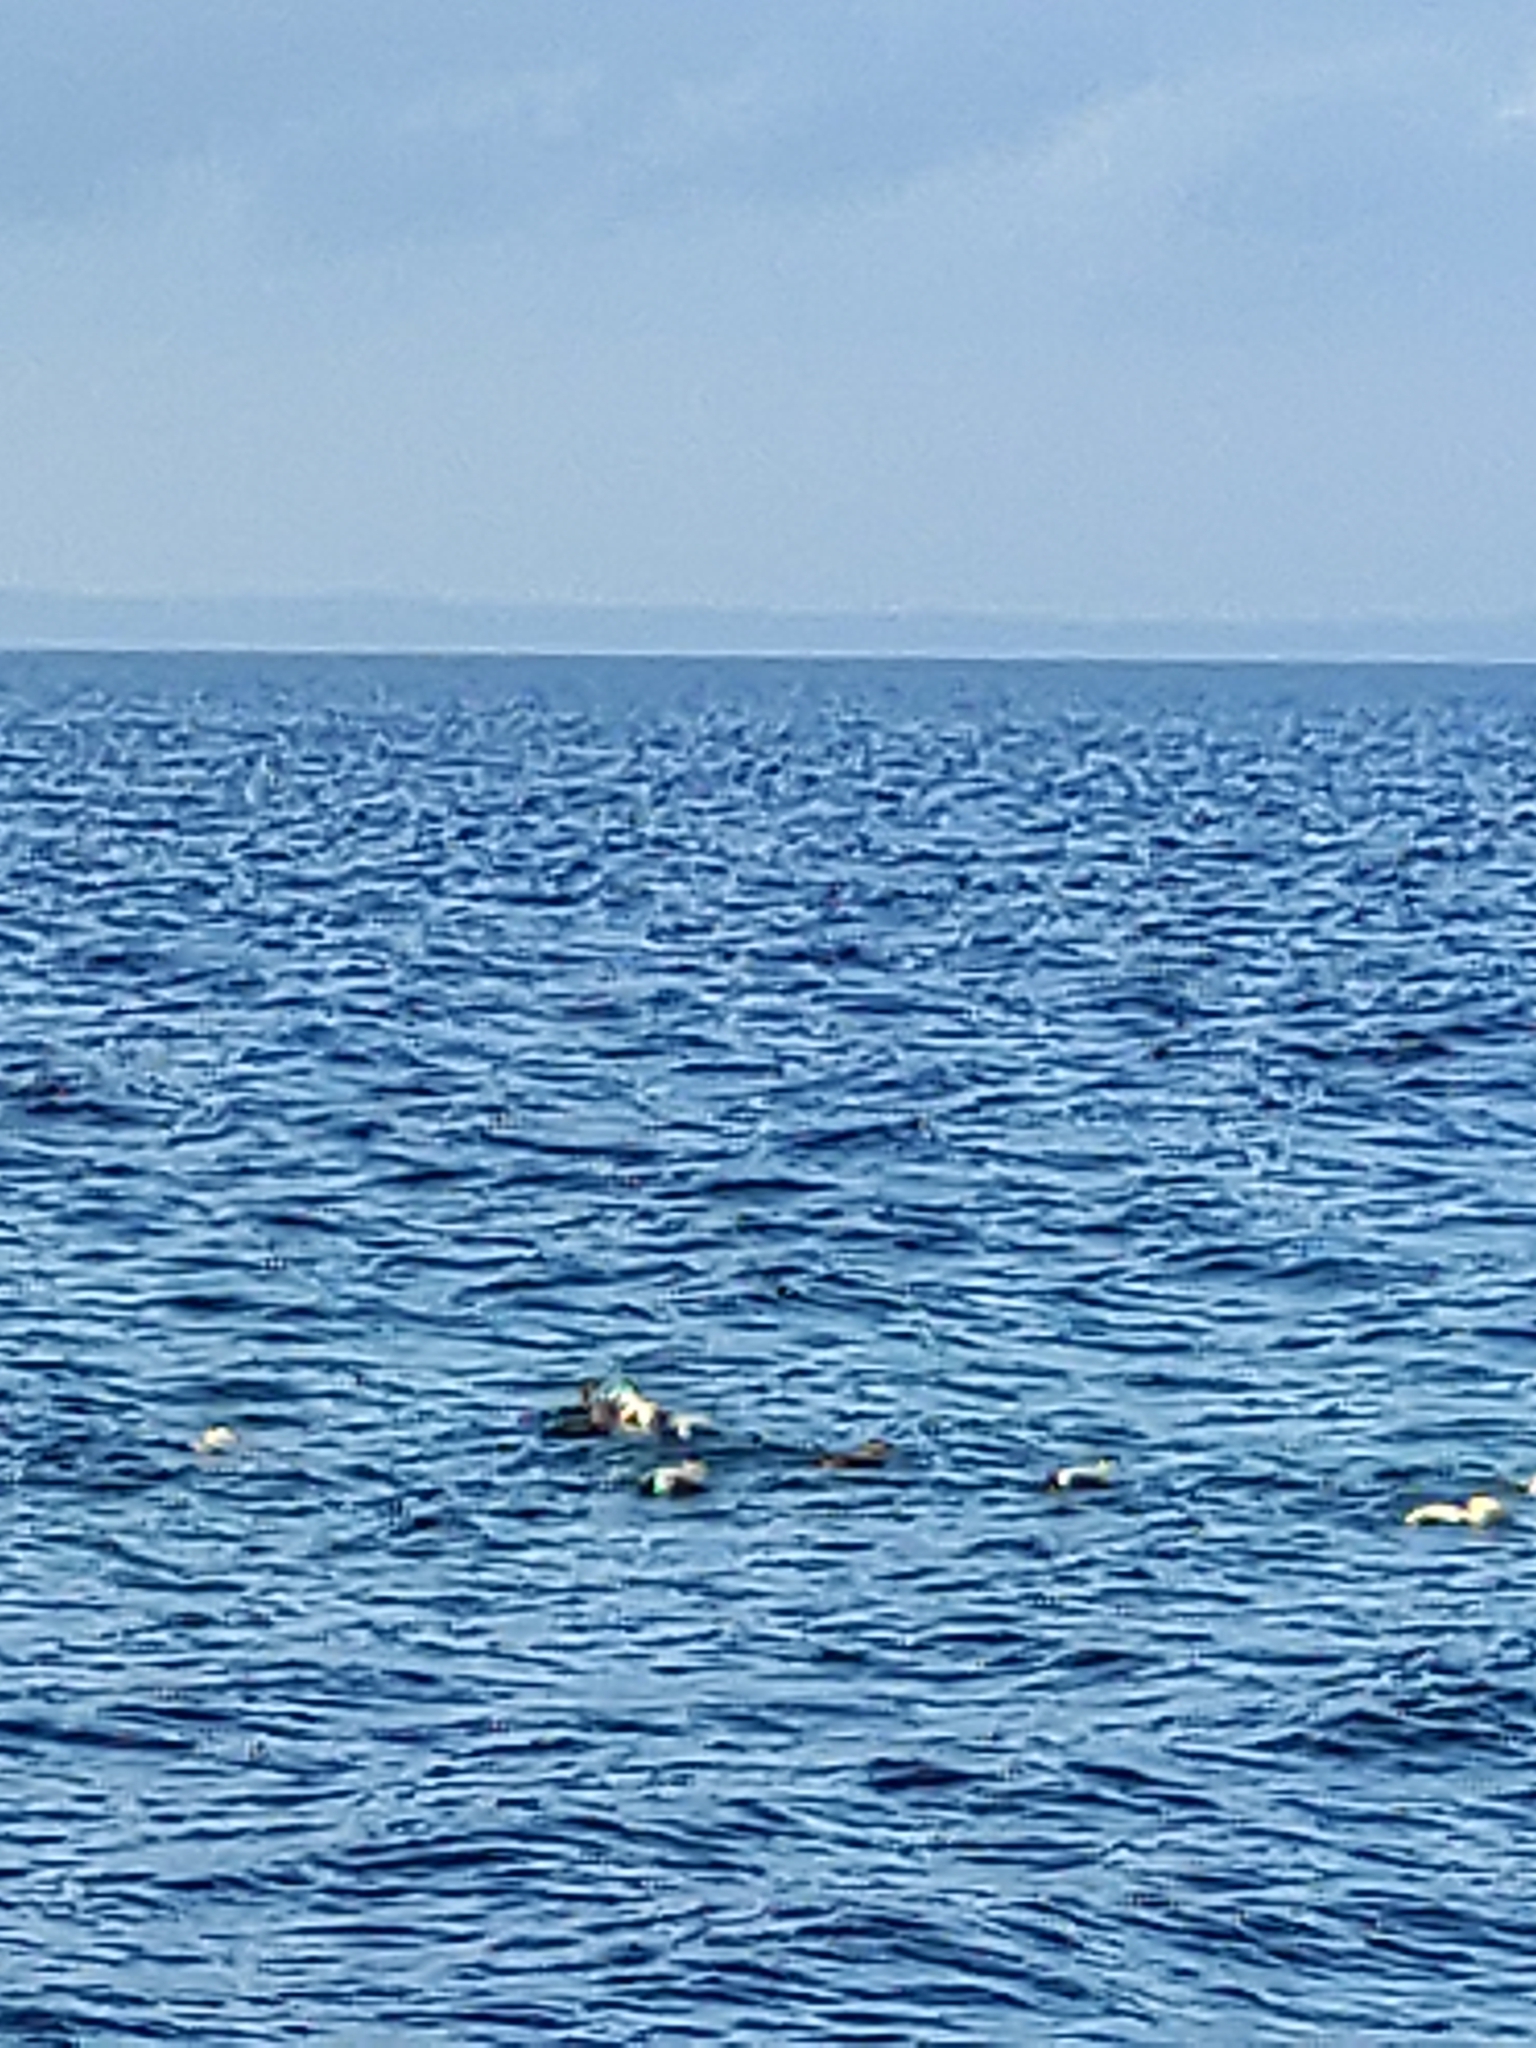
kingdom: Animalia
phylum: Chordata
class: Aves
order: Anseriformes
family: Anatidae
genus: Somateria
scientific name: Somateria mollissima
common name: Common eider
